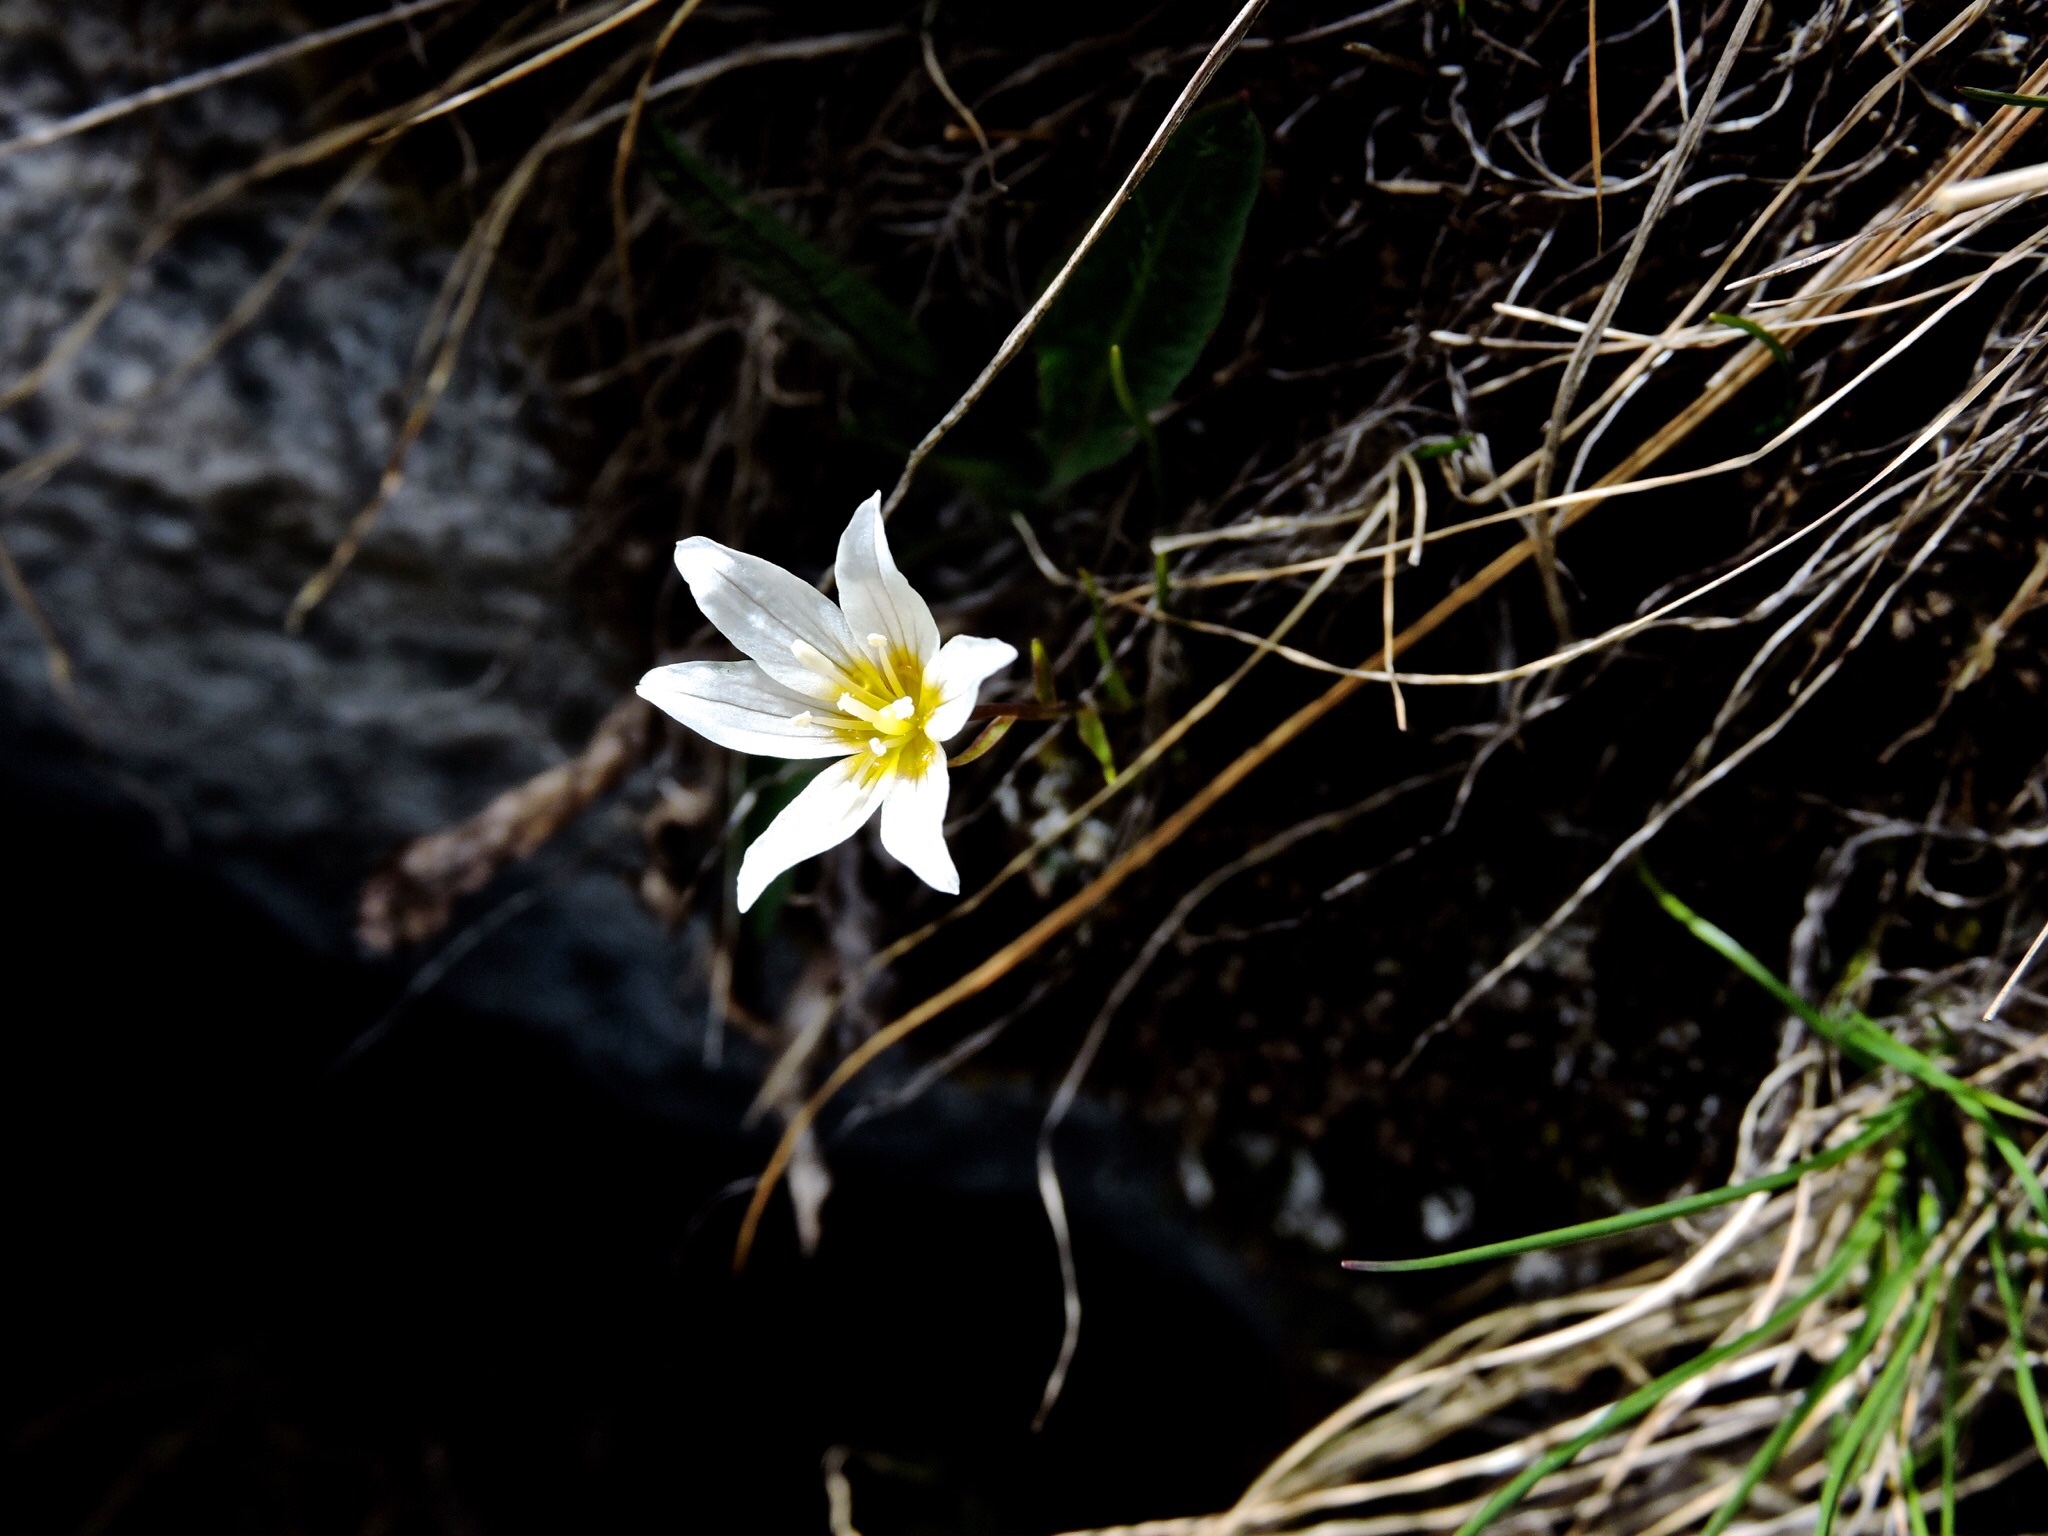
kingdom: Plantae
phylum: Tracheophyta
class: Liliopsida
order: Liliales
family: Liliaceae
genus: Gagea
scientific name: Gagea serotina
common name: Snowdon lily
